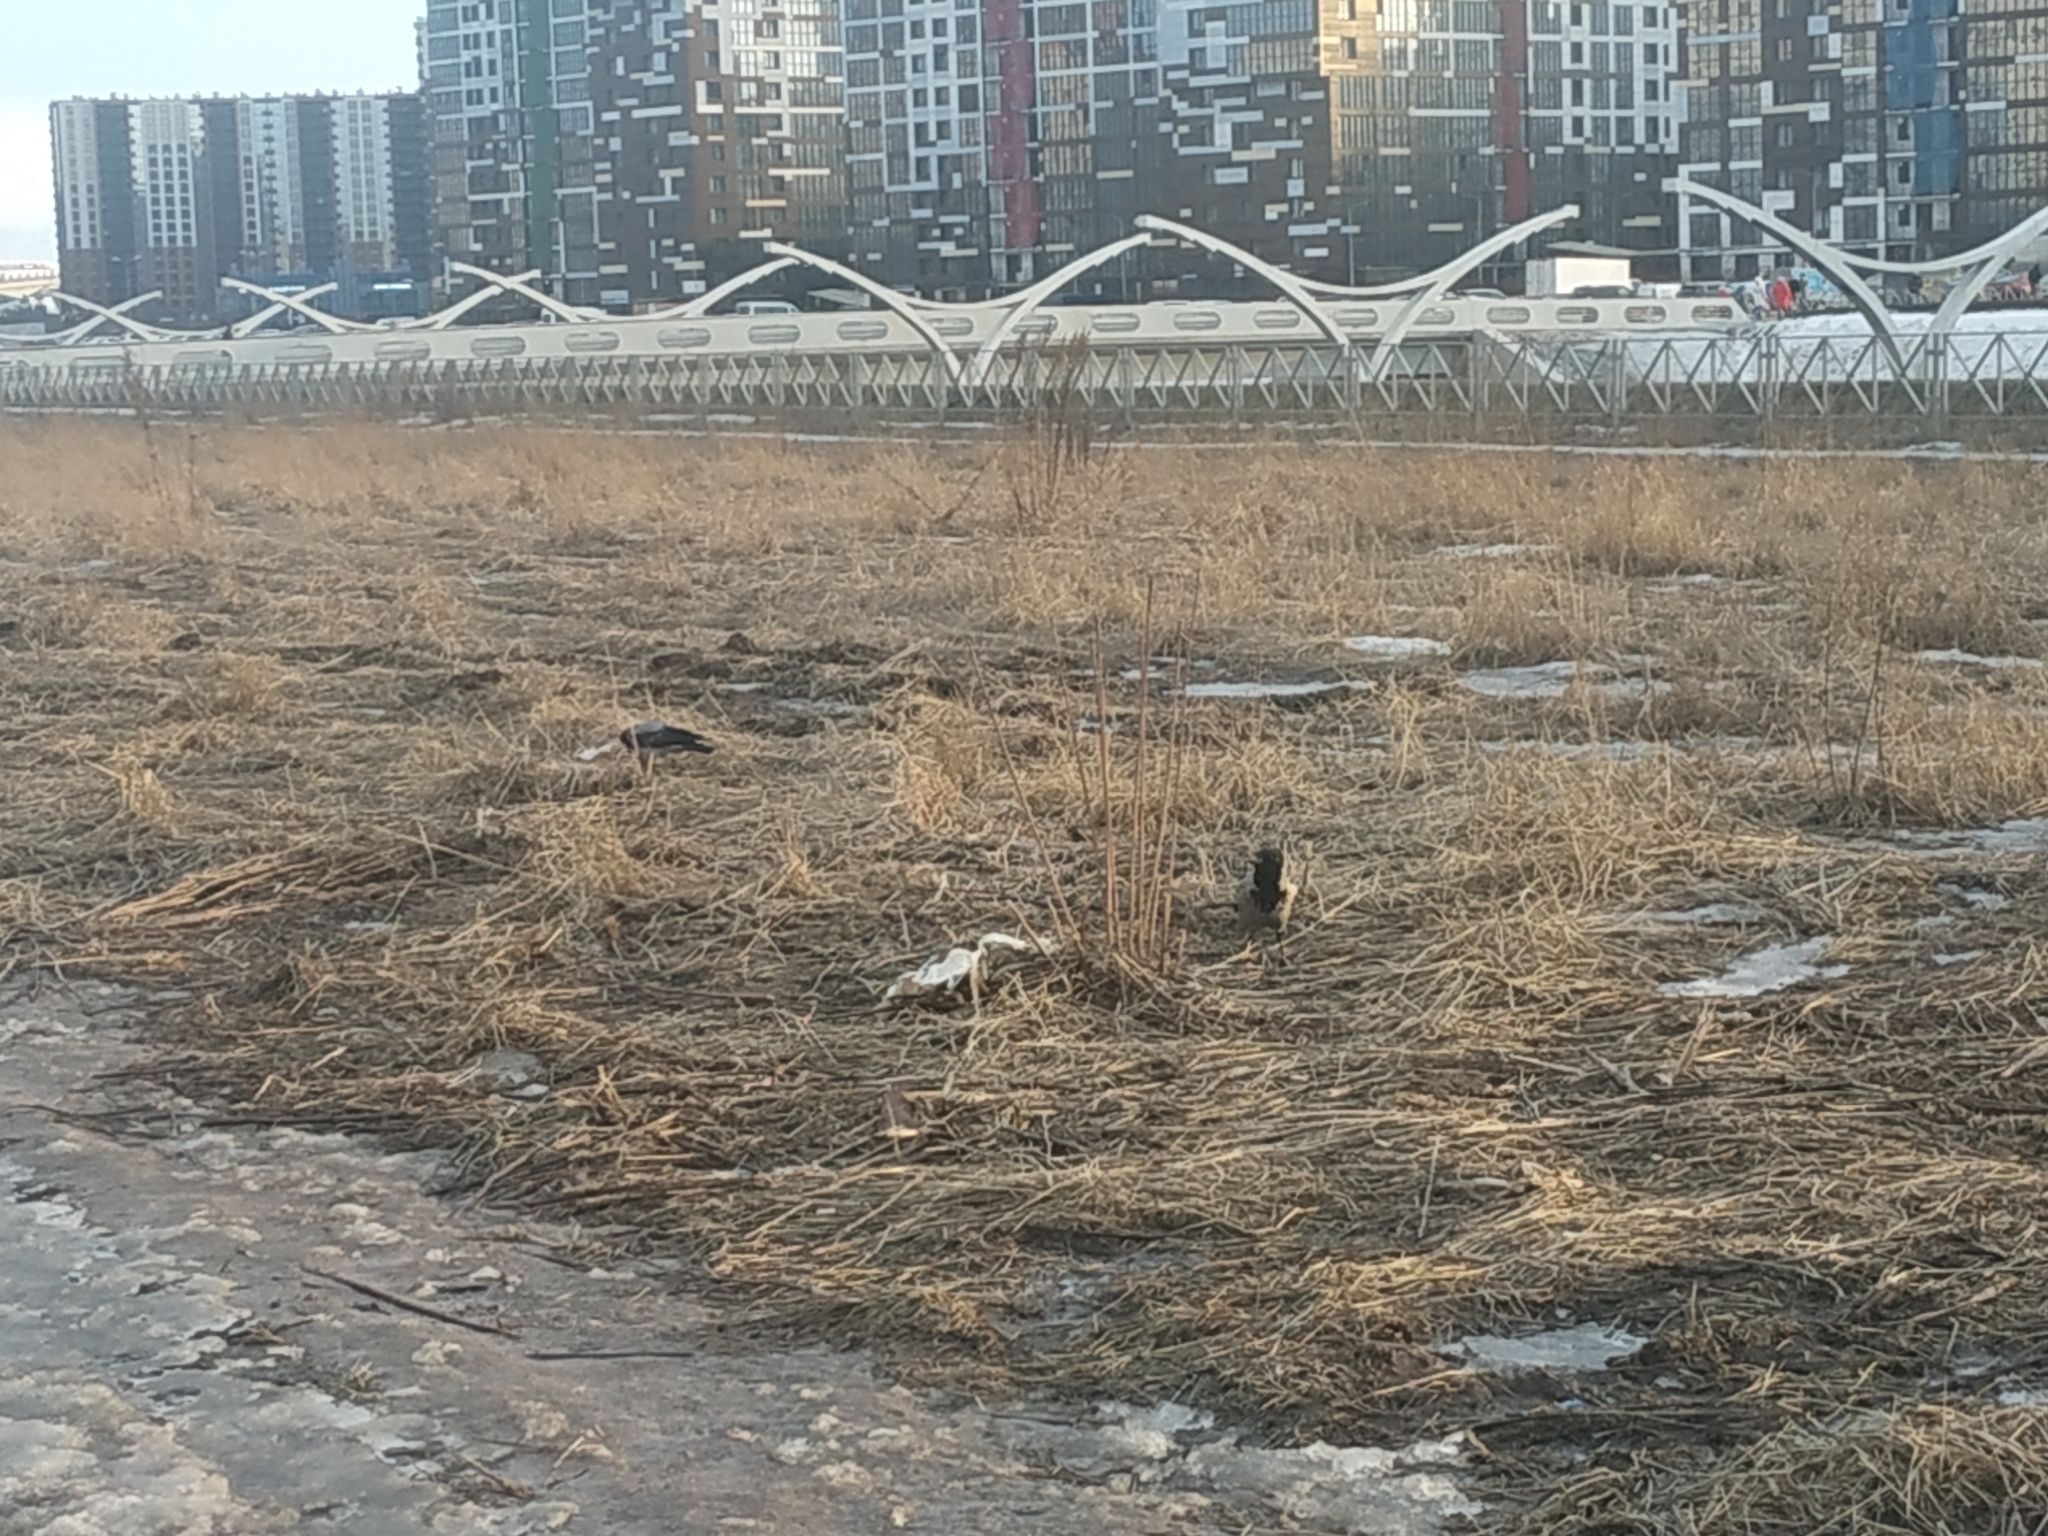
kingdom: Animalia
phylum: Chordata
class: Aves
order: Passeriformes
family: Corvidae
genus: Corvus
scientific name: Corvus cornix
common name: Hooded crow
